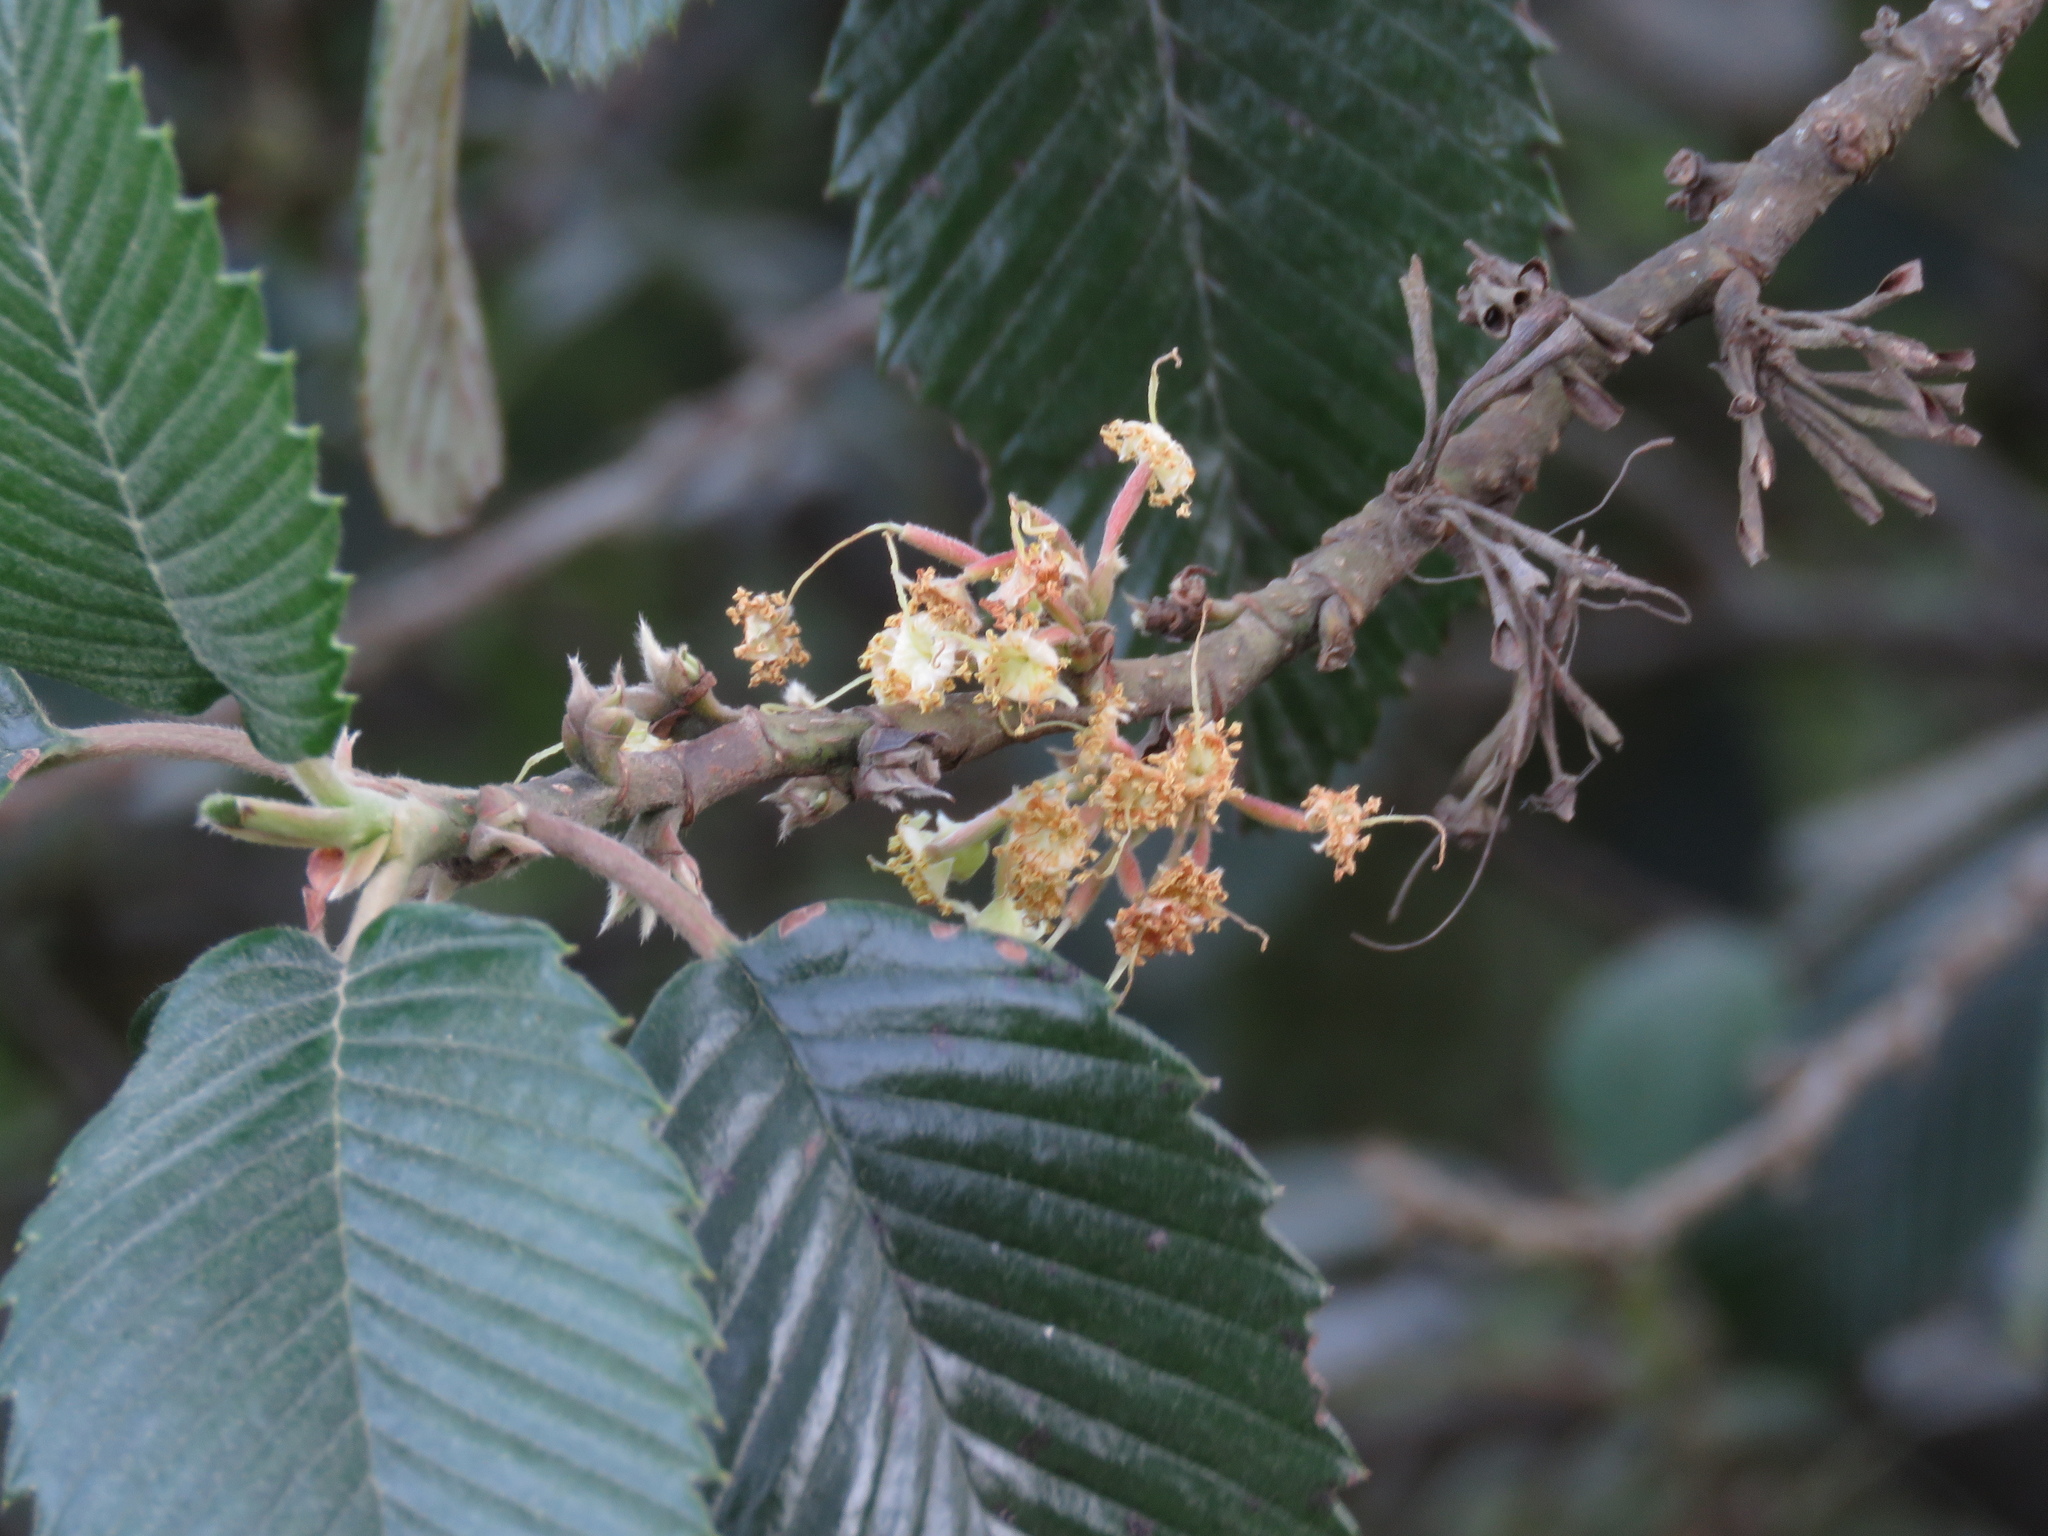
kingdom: Plantae
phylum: Tracheophyta
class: Magnoliopsida
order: Rosales
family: Rosaceae
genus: Cercocarpus
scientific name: Cercocarpus macrophyllus
